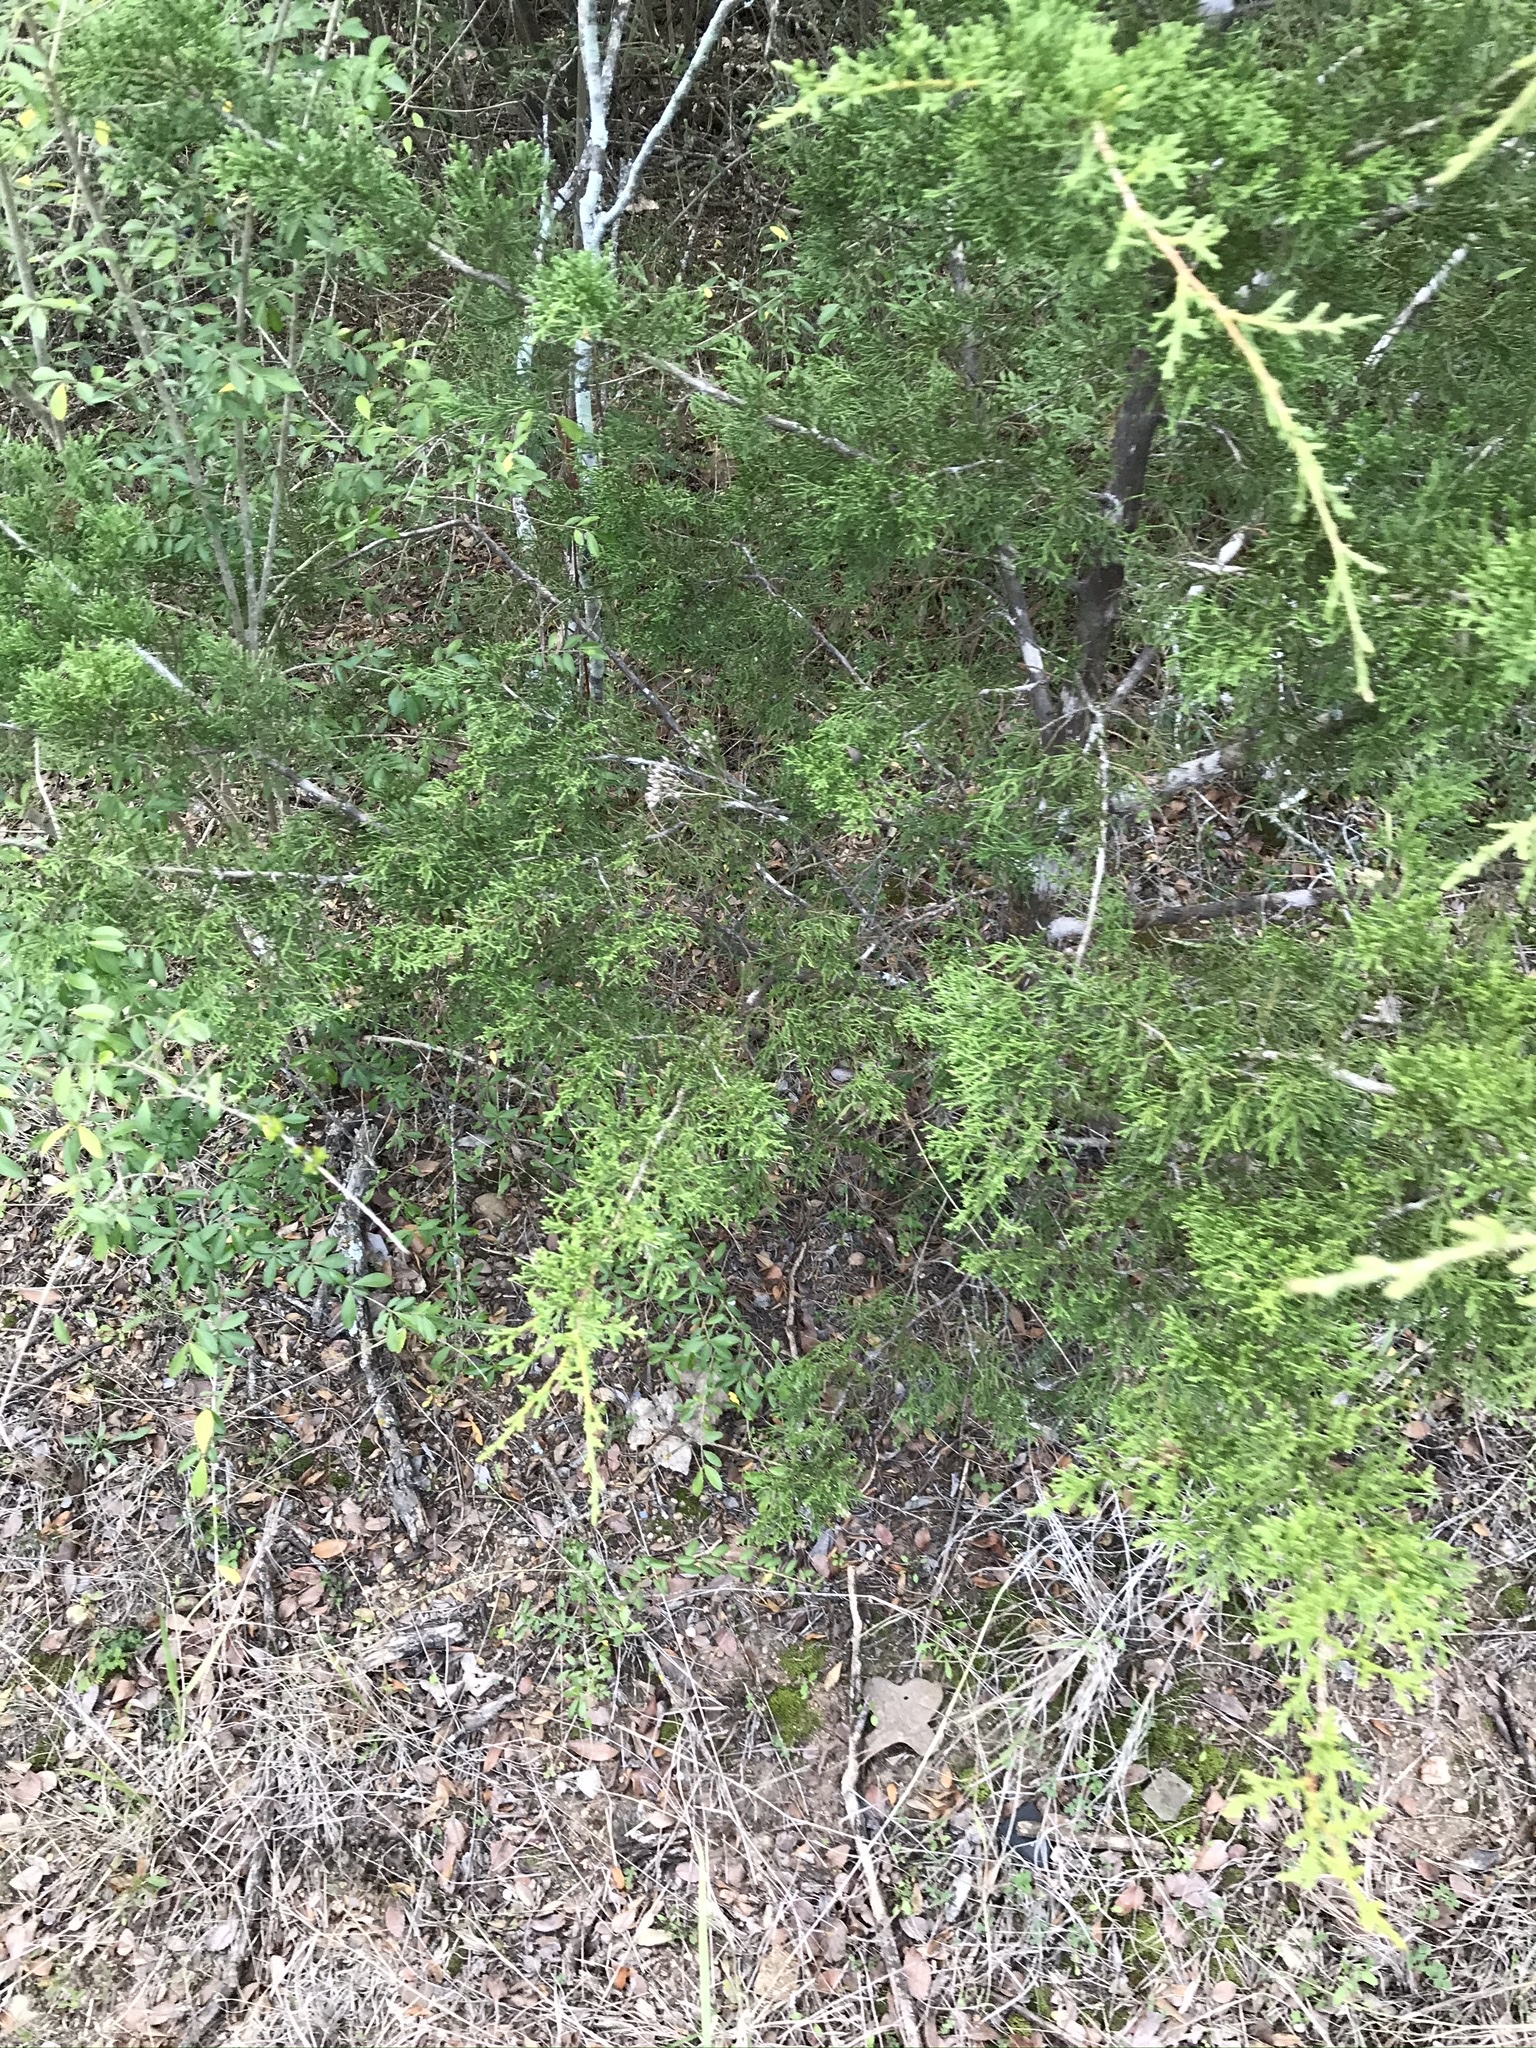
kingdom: Plantae
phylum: Tracheophyta
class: Pinopsida
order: Pinales
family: Cupressaceae
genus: Juniperus
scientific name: Juniperus ashei
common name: Mexican juniper
